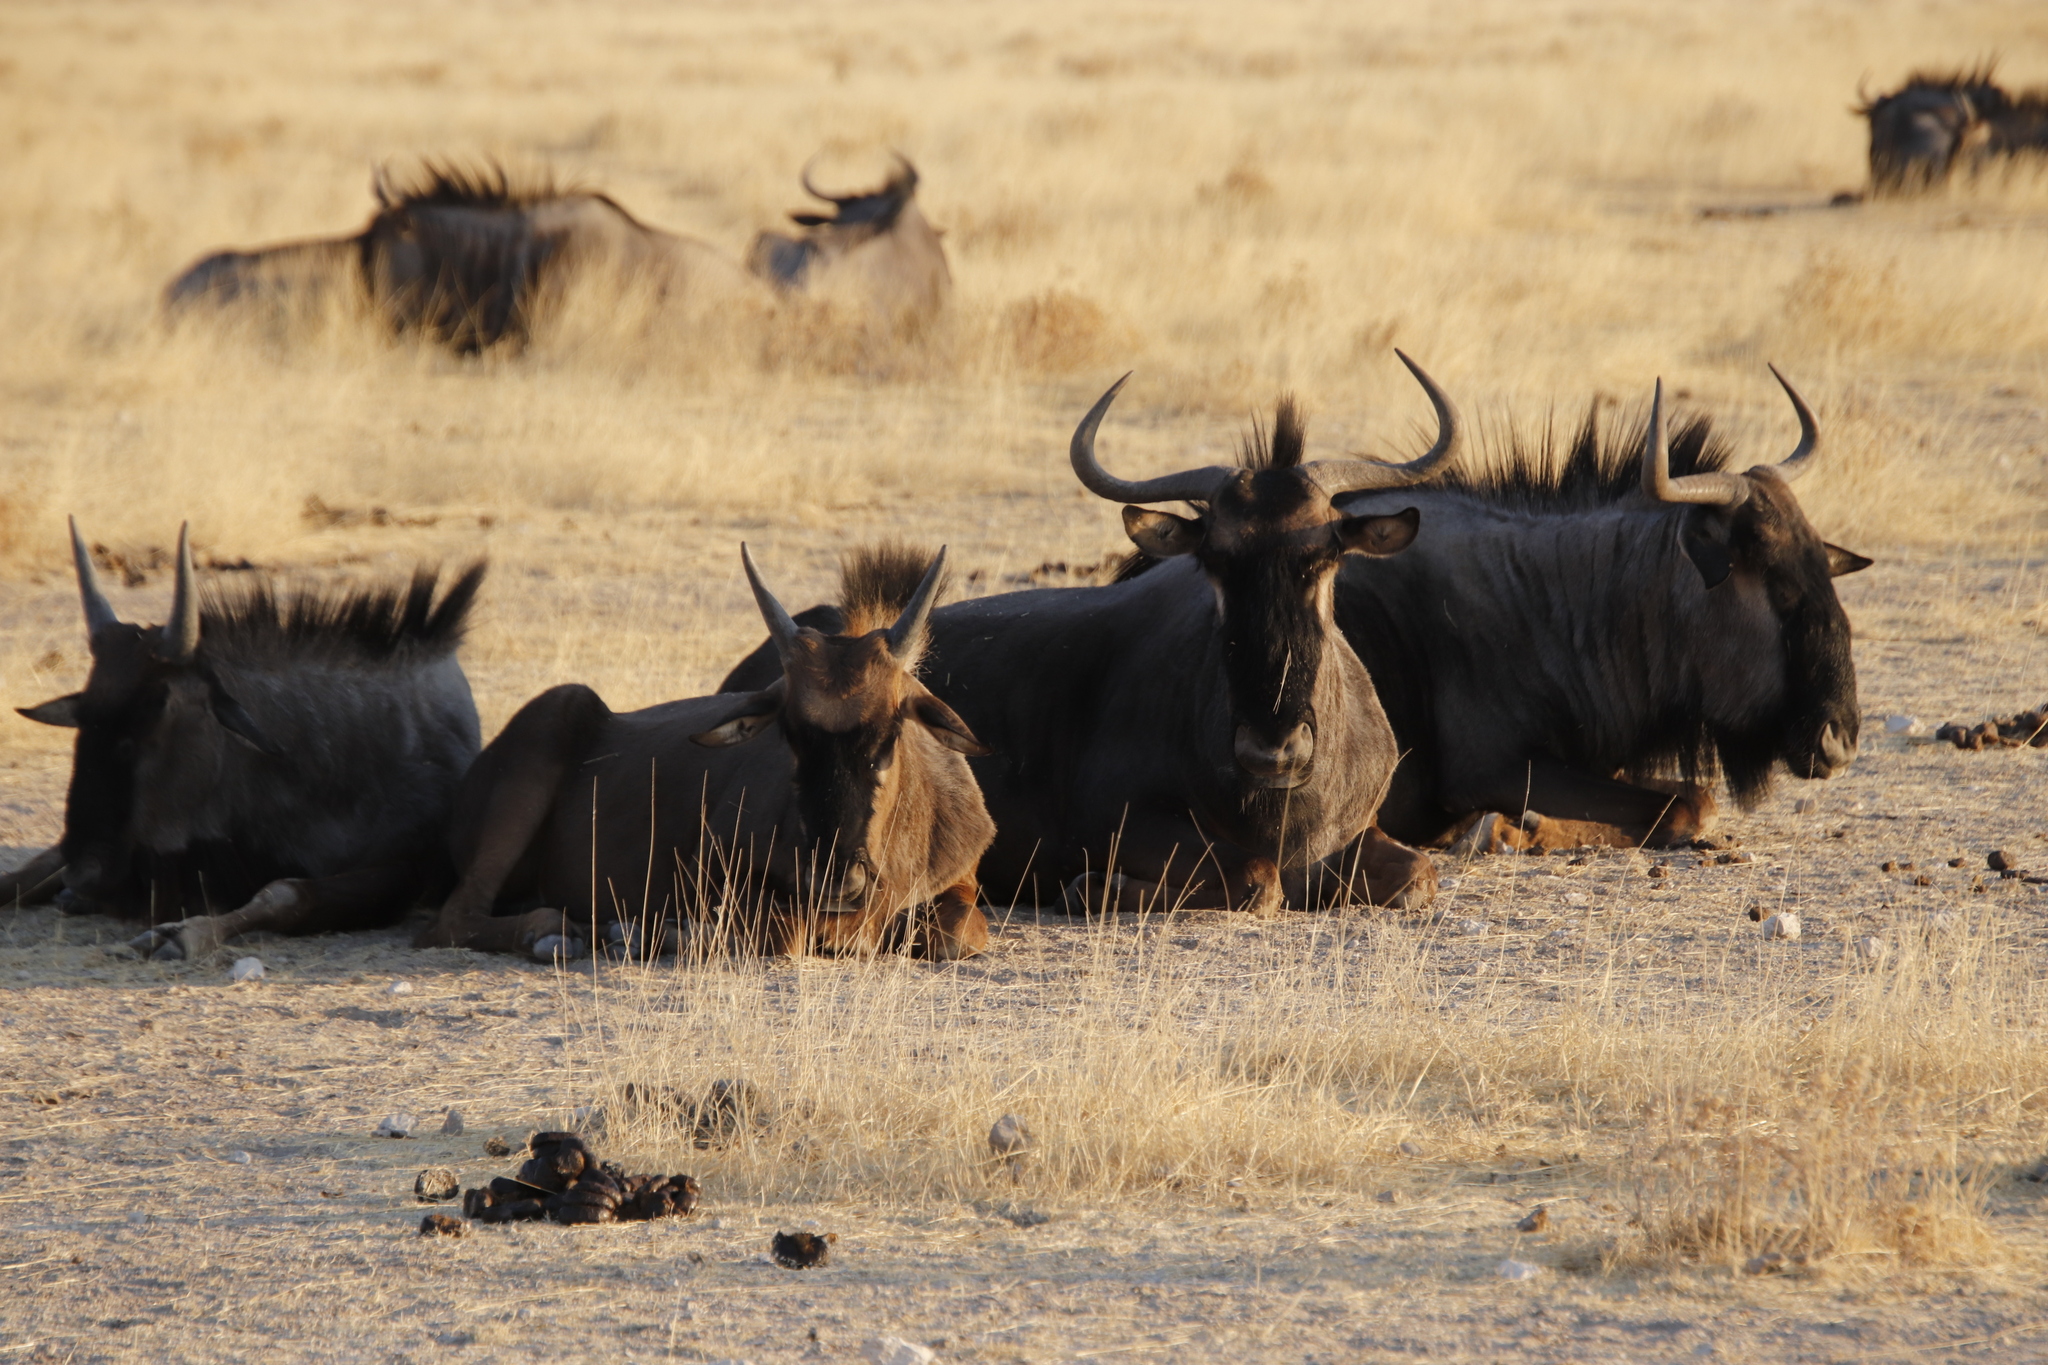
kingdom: Animalia
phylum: Chordata
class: Mammalia
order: Artiodactyla
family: Bovidae
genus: Connochaetes
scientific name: Connochaetes taurinus
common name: Blue wildebeest
